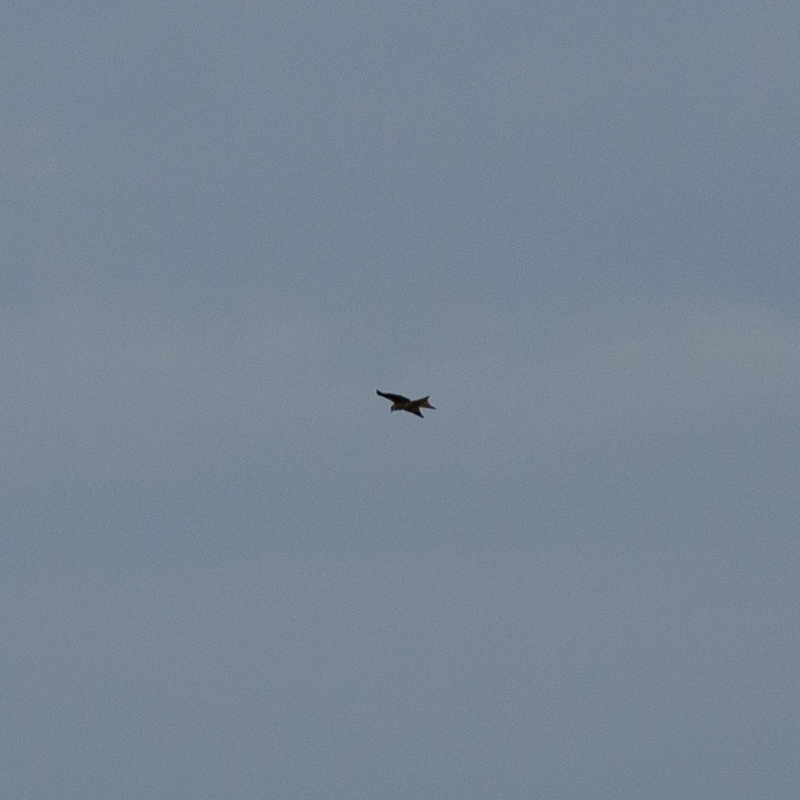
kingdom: Animalia
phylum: Chordata
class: Aves
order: Accipitriformes
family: Accipitridae
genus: Milvus
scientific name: Milvus milvus
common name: Red kite
